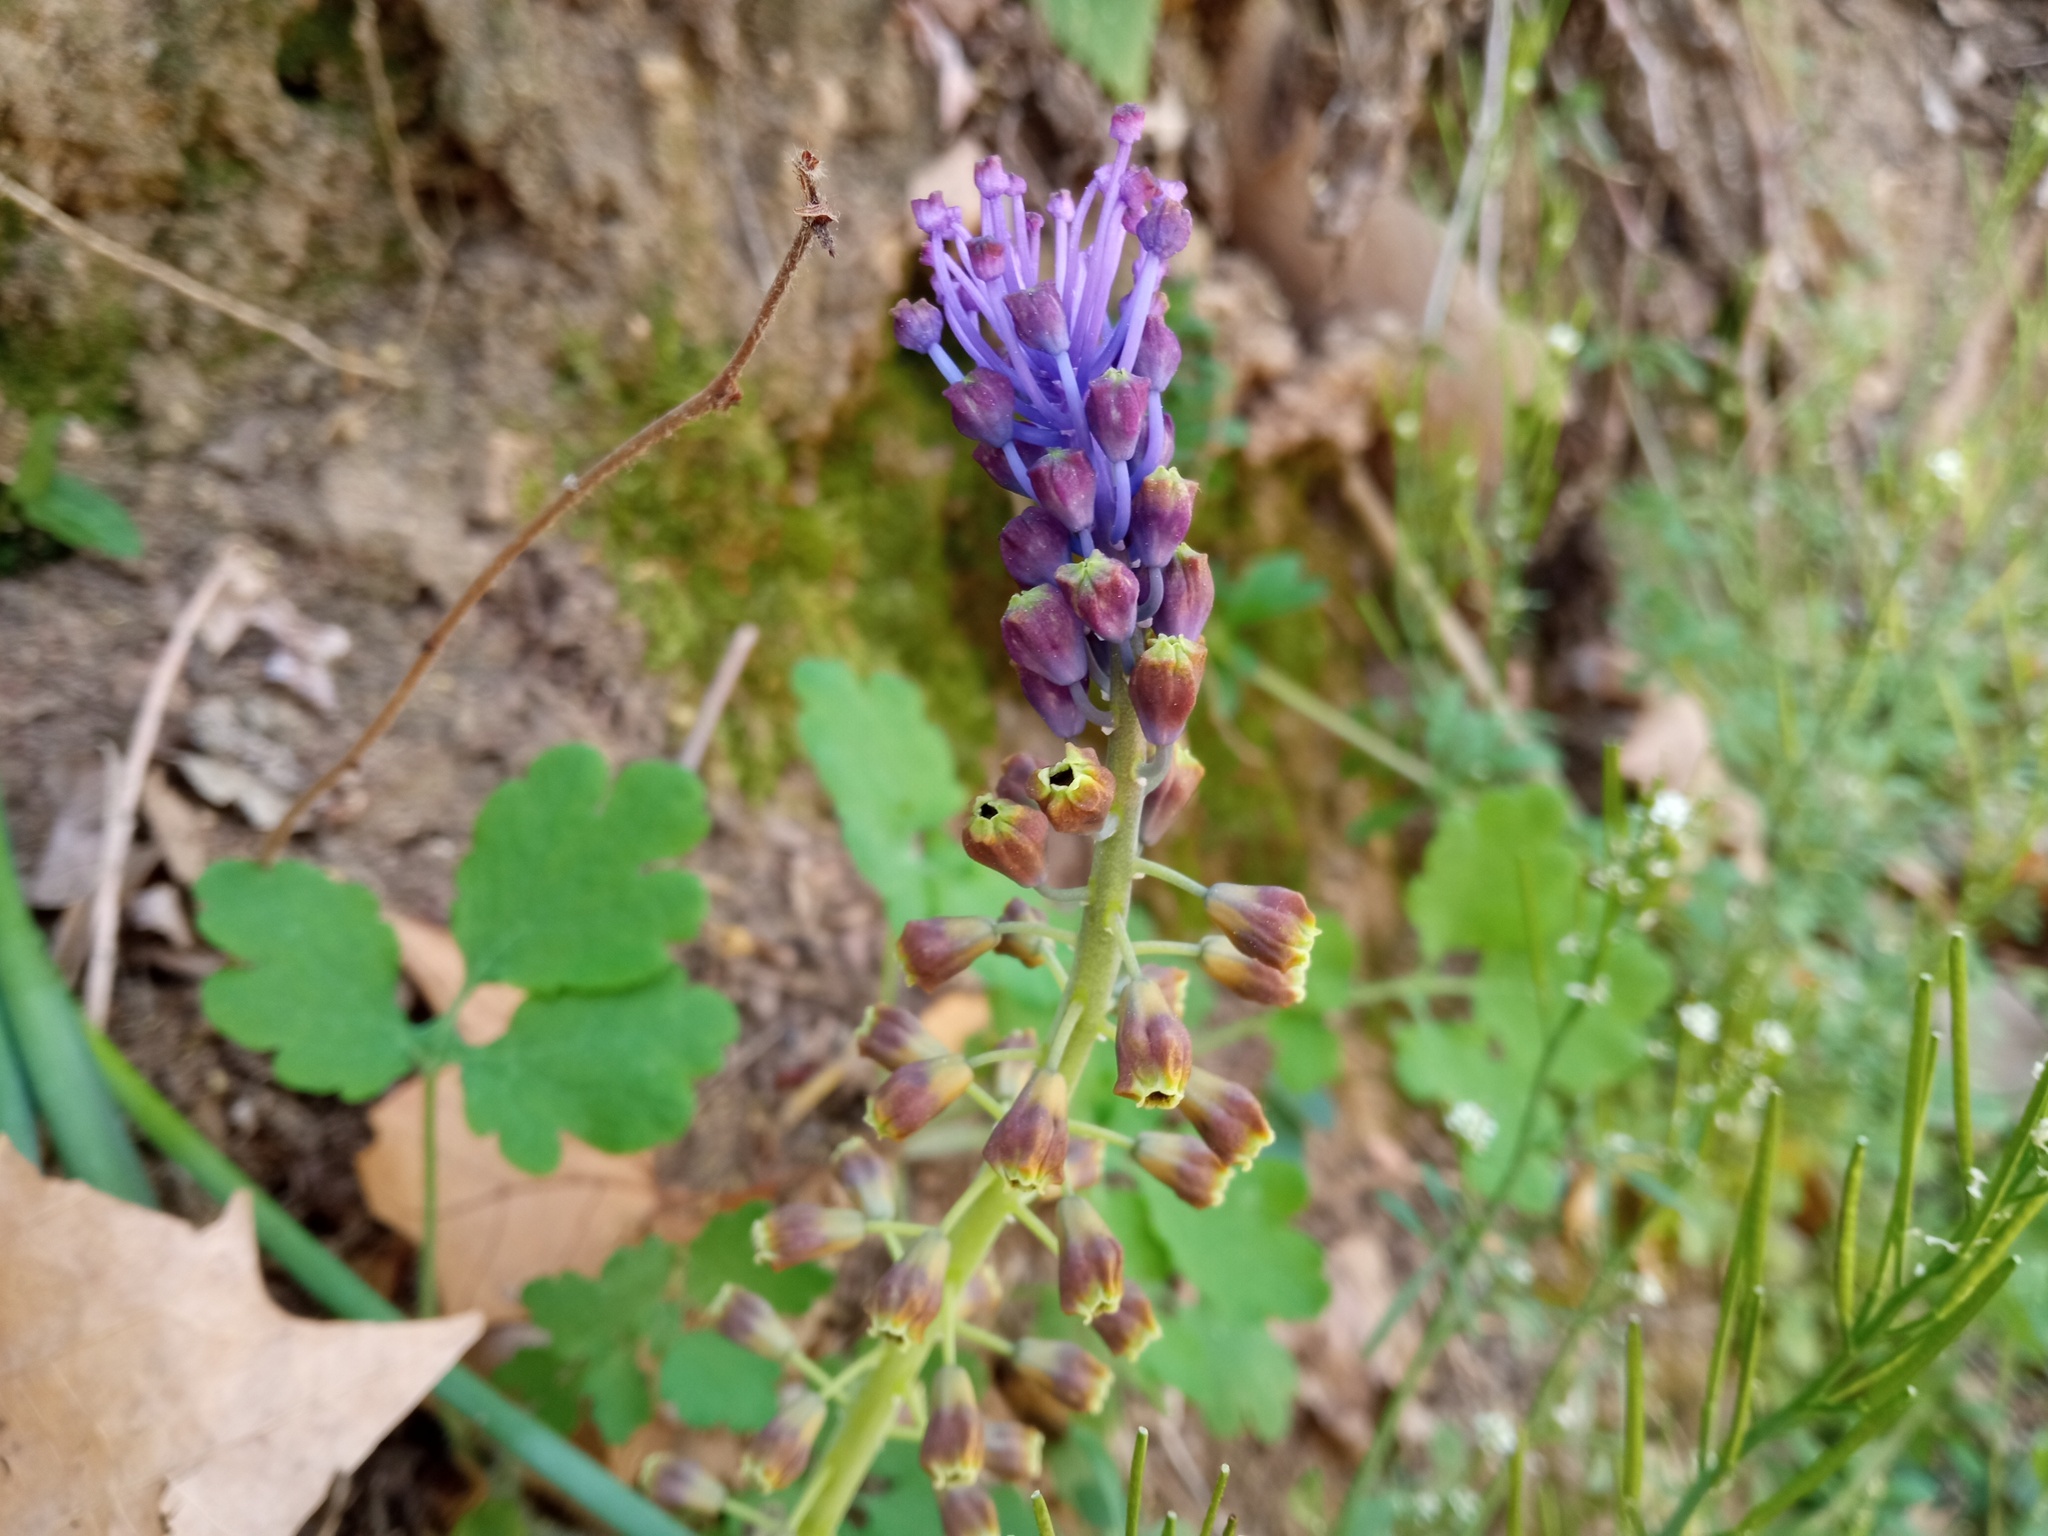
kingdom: Plantae
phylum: Tracheophyta
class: Liliopsida
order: Asparagales
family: Asparagaceae
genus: Muscari
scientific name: Muscari comosum
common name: Tassel hyacinth
